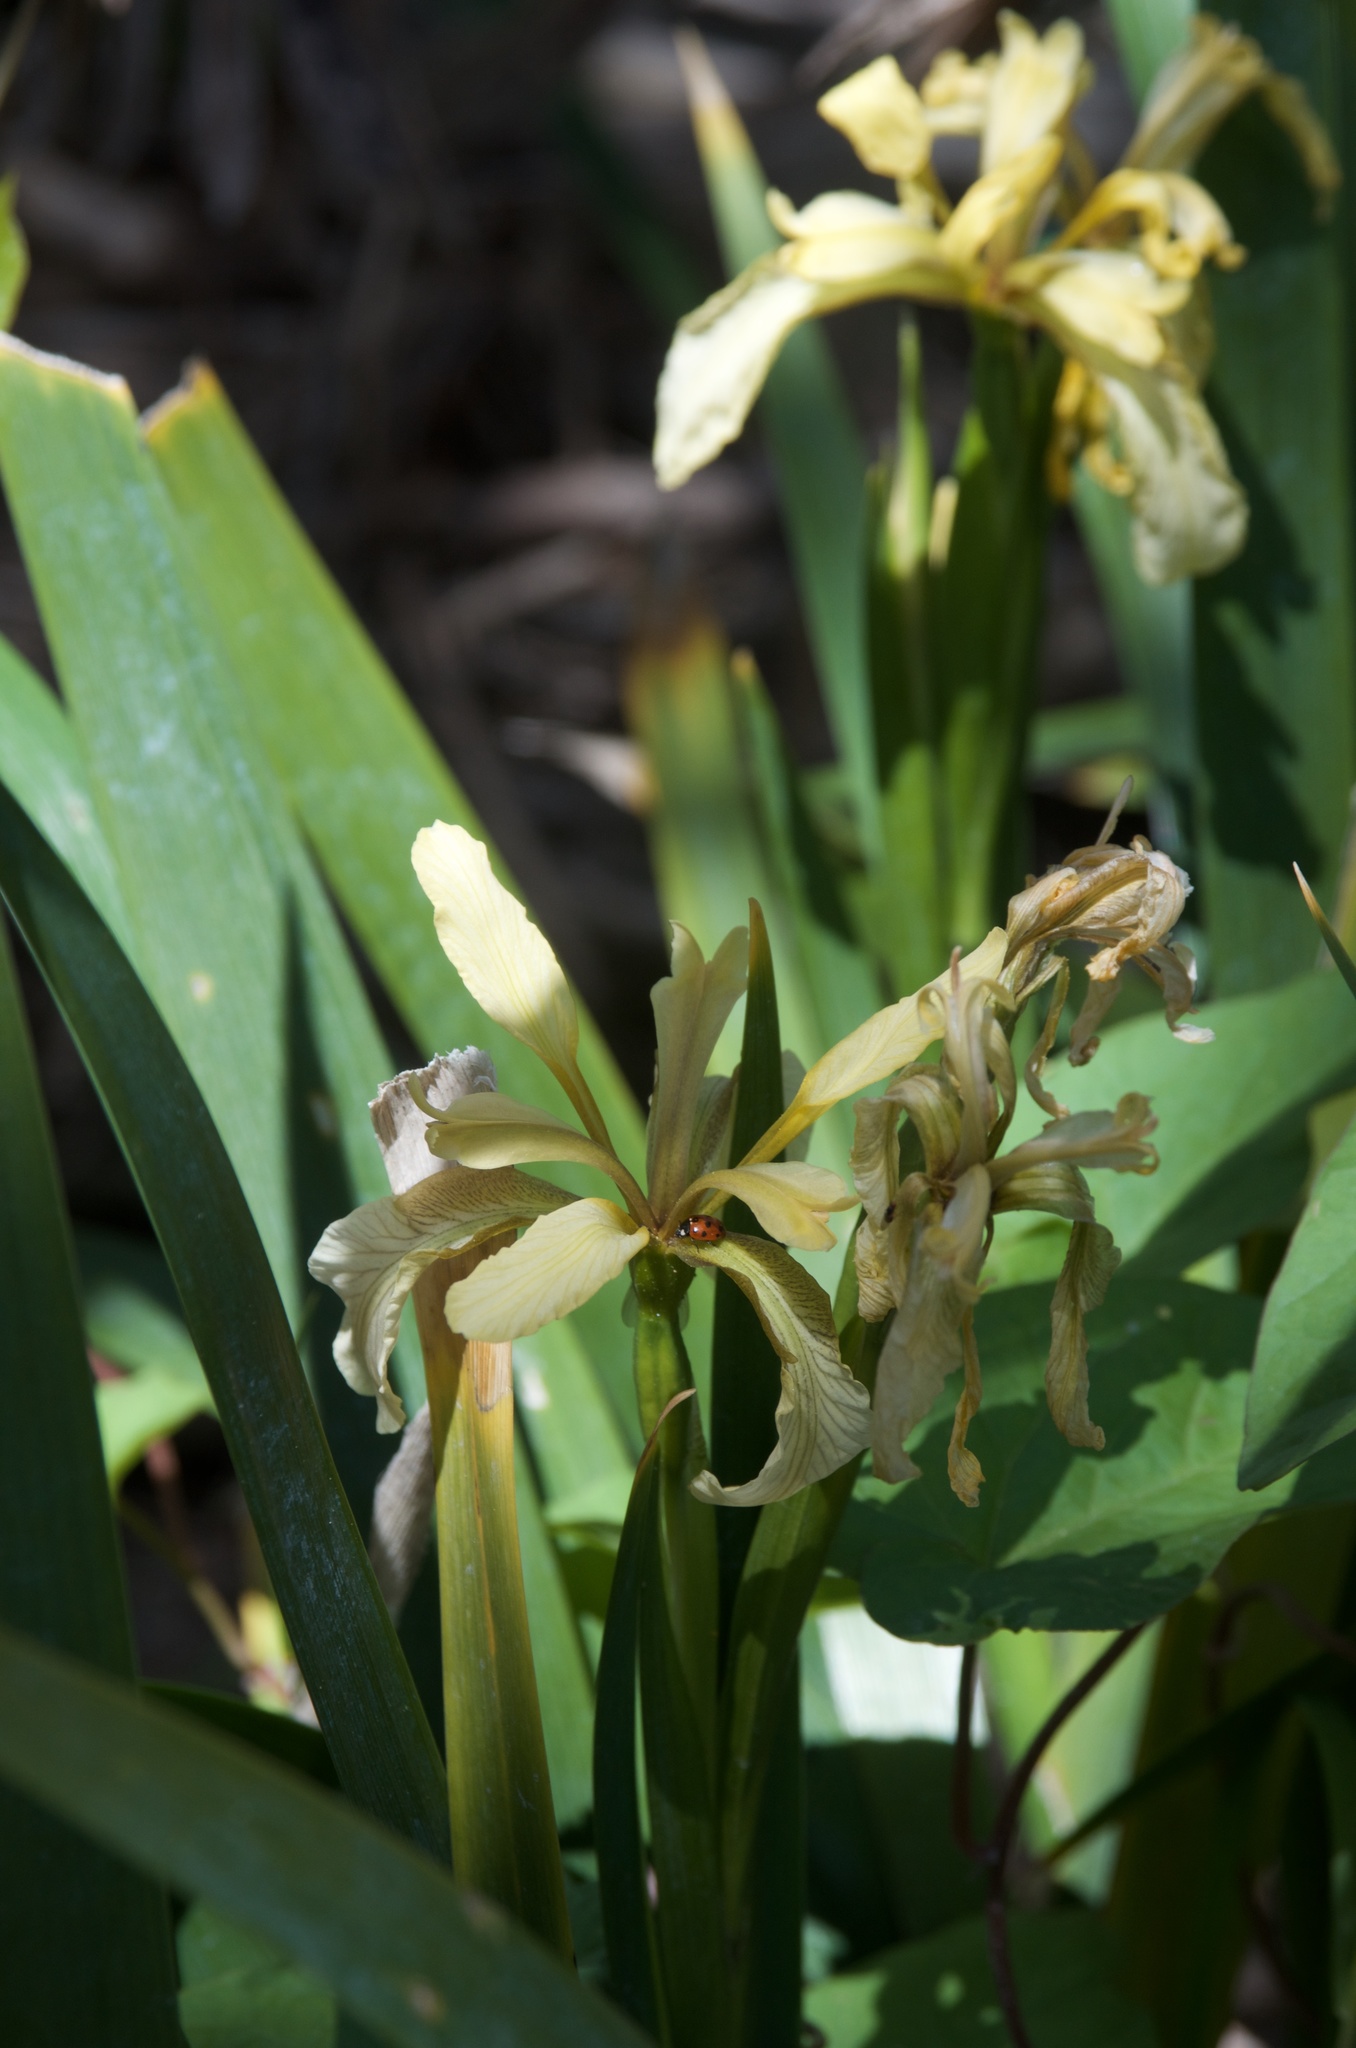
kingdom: Plantae
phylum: Tracheophyta
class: Liliopsida
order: Asparagales
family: Iridaceae
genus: Iris
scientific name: Iris foetidissima
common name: Stinking iris
